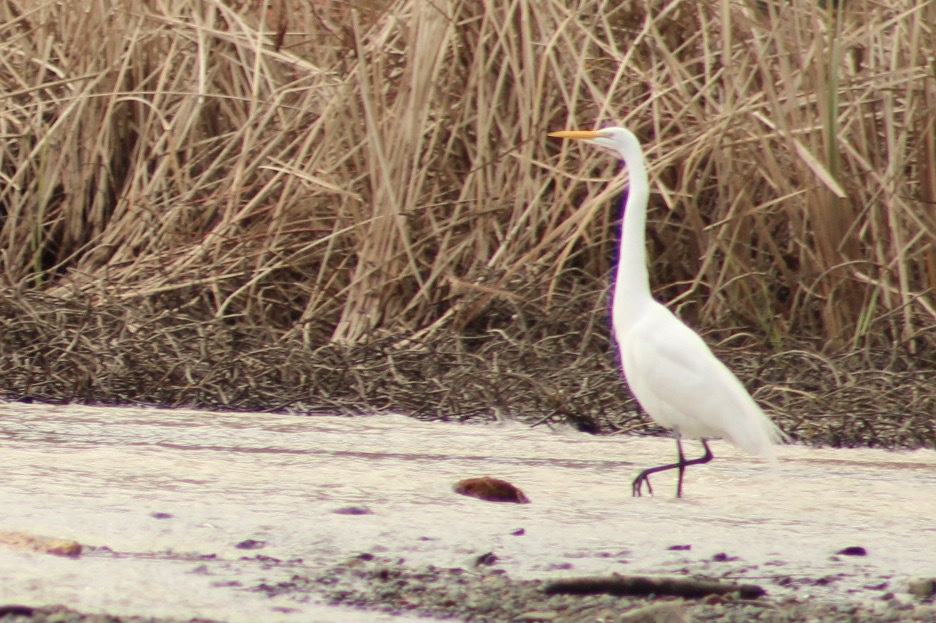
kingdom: Animalia
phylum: Chordata
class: Aves
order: Pelecaniformes
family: Ardeidae
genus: Ardea
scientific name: Ardea alba
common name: Great egret
